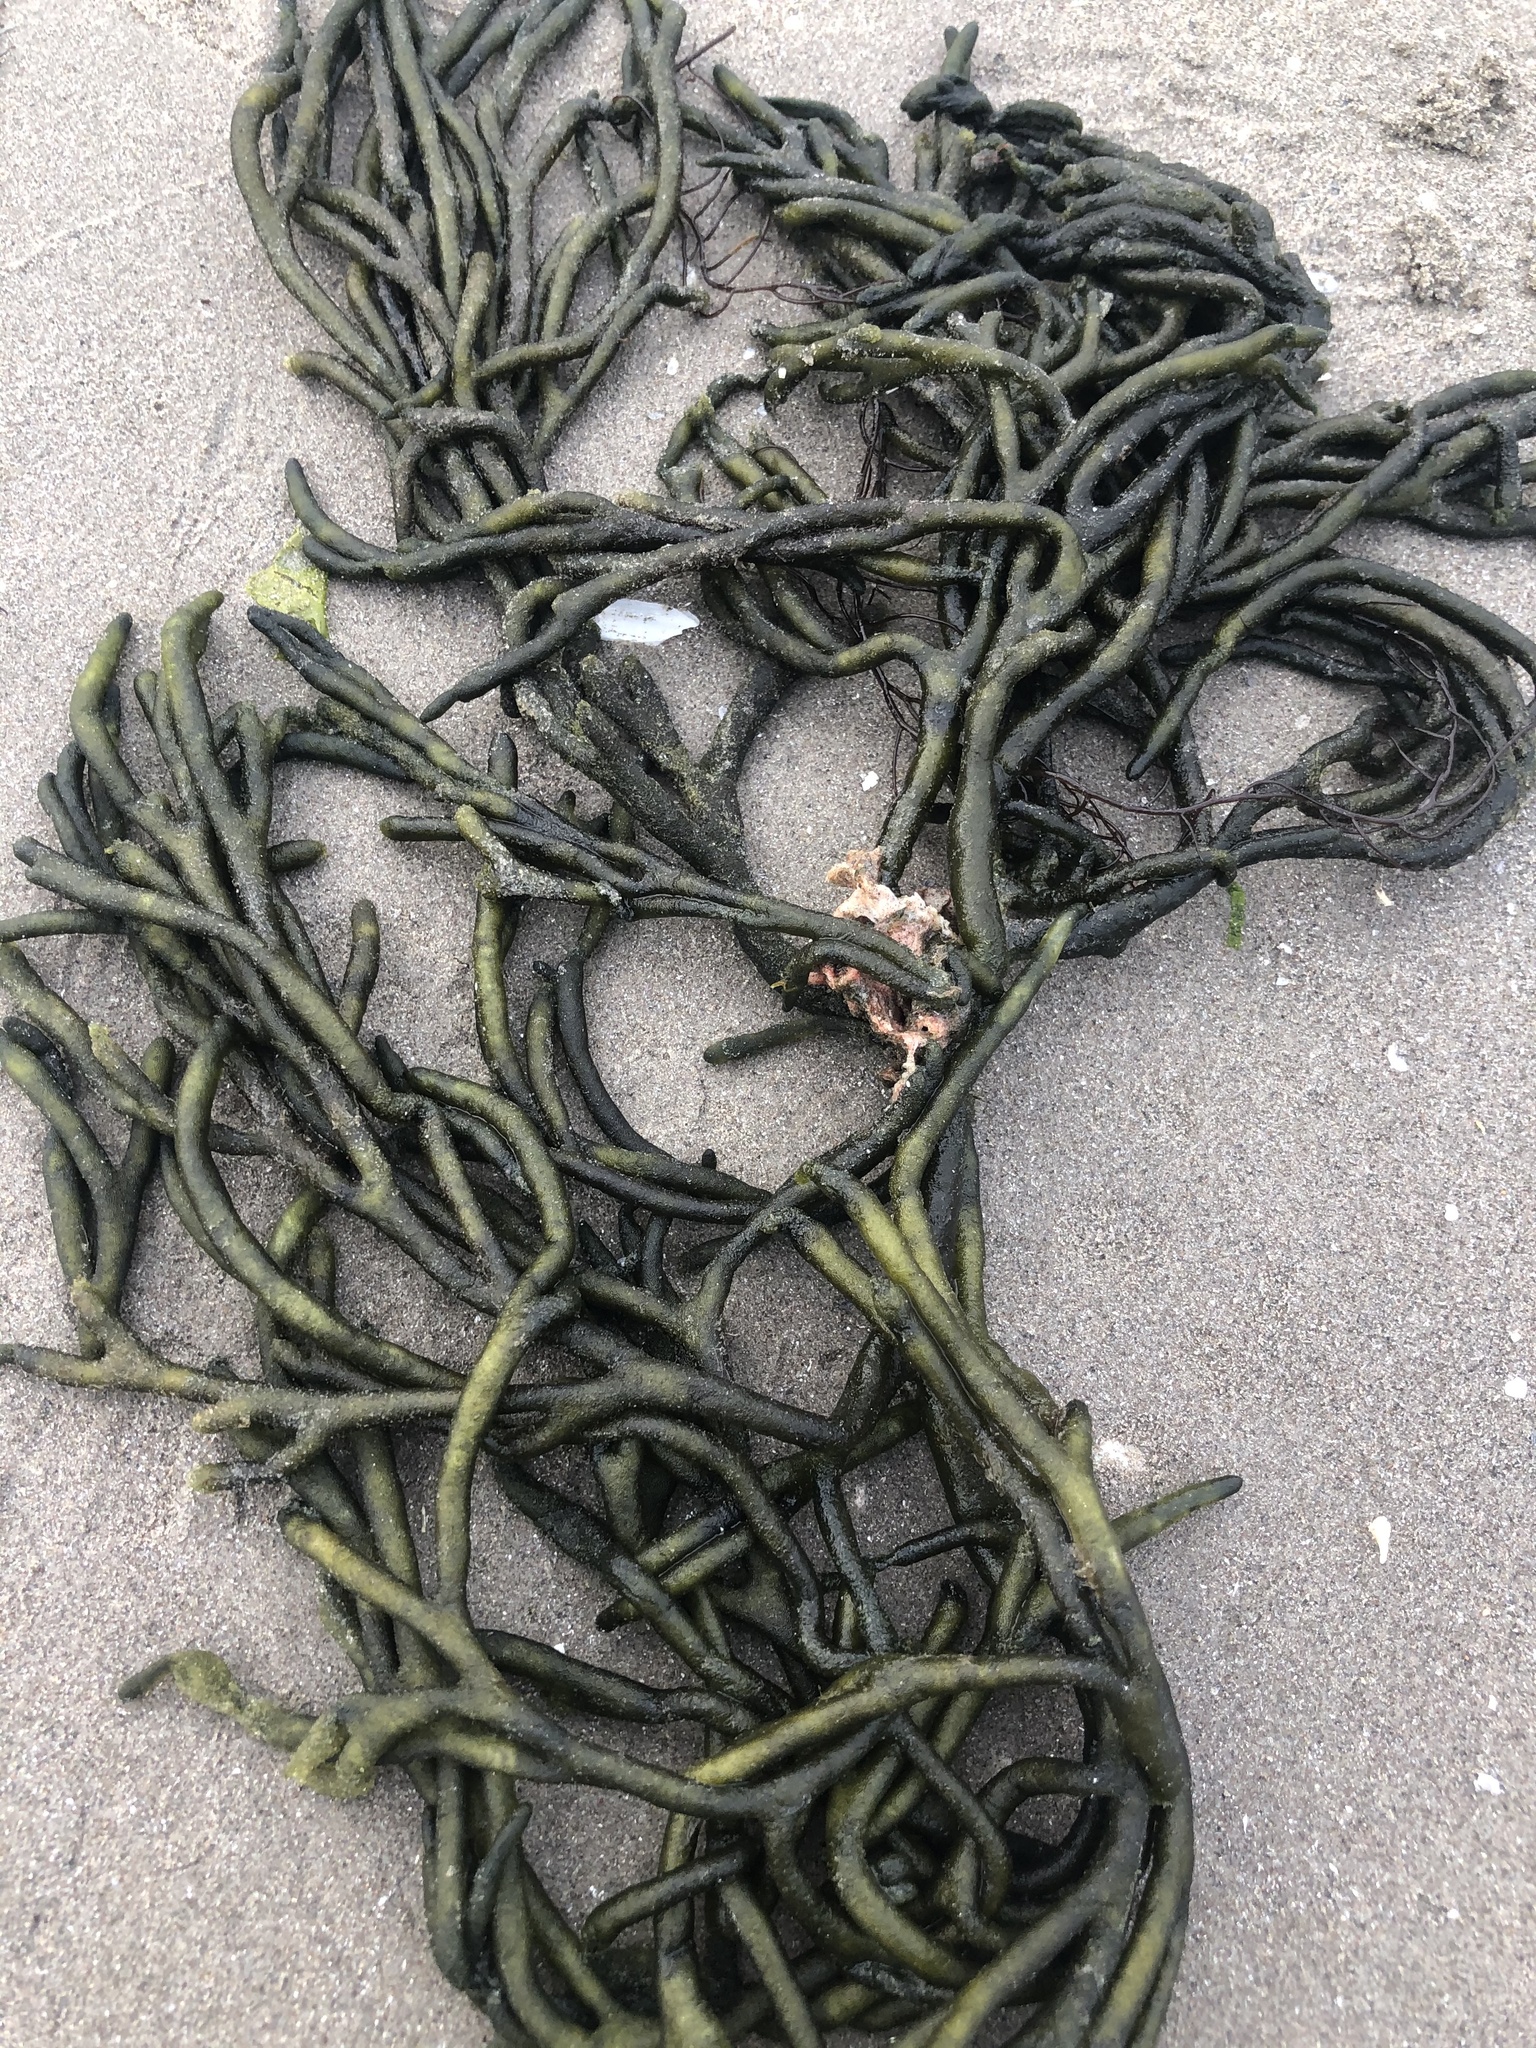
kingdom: Plantae
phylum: Chlorophyta
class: Ulvophyceae
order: Bryopsidales
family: Codiaceae
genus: Codium
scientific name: Codium fragile
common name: Dead man's fingers
